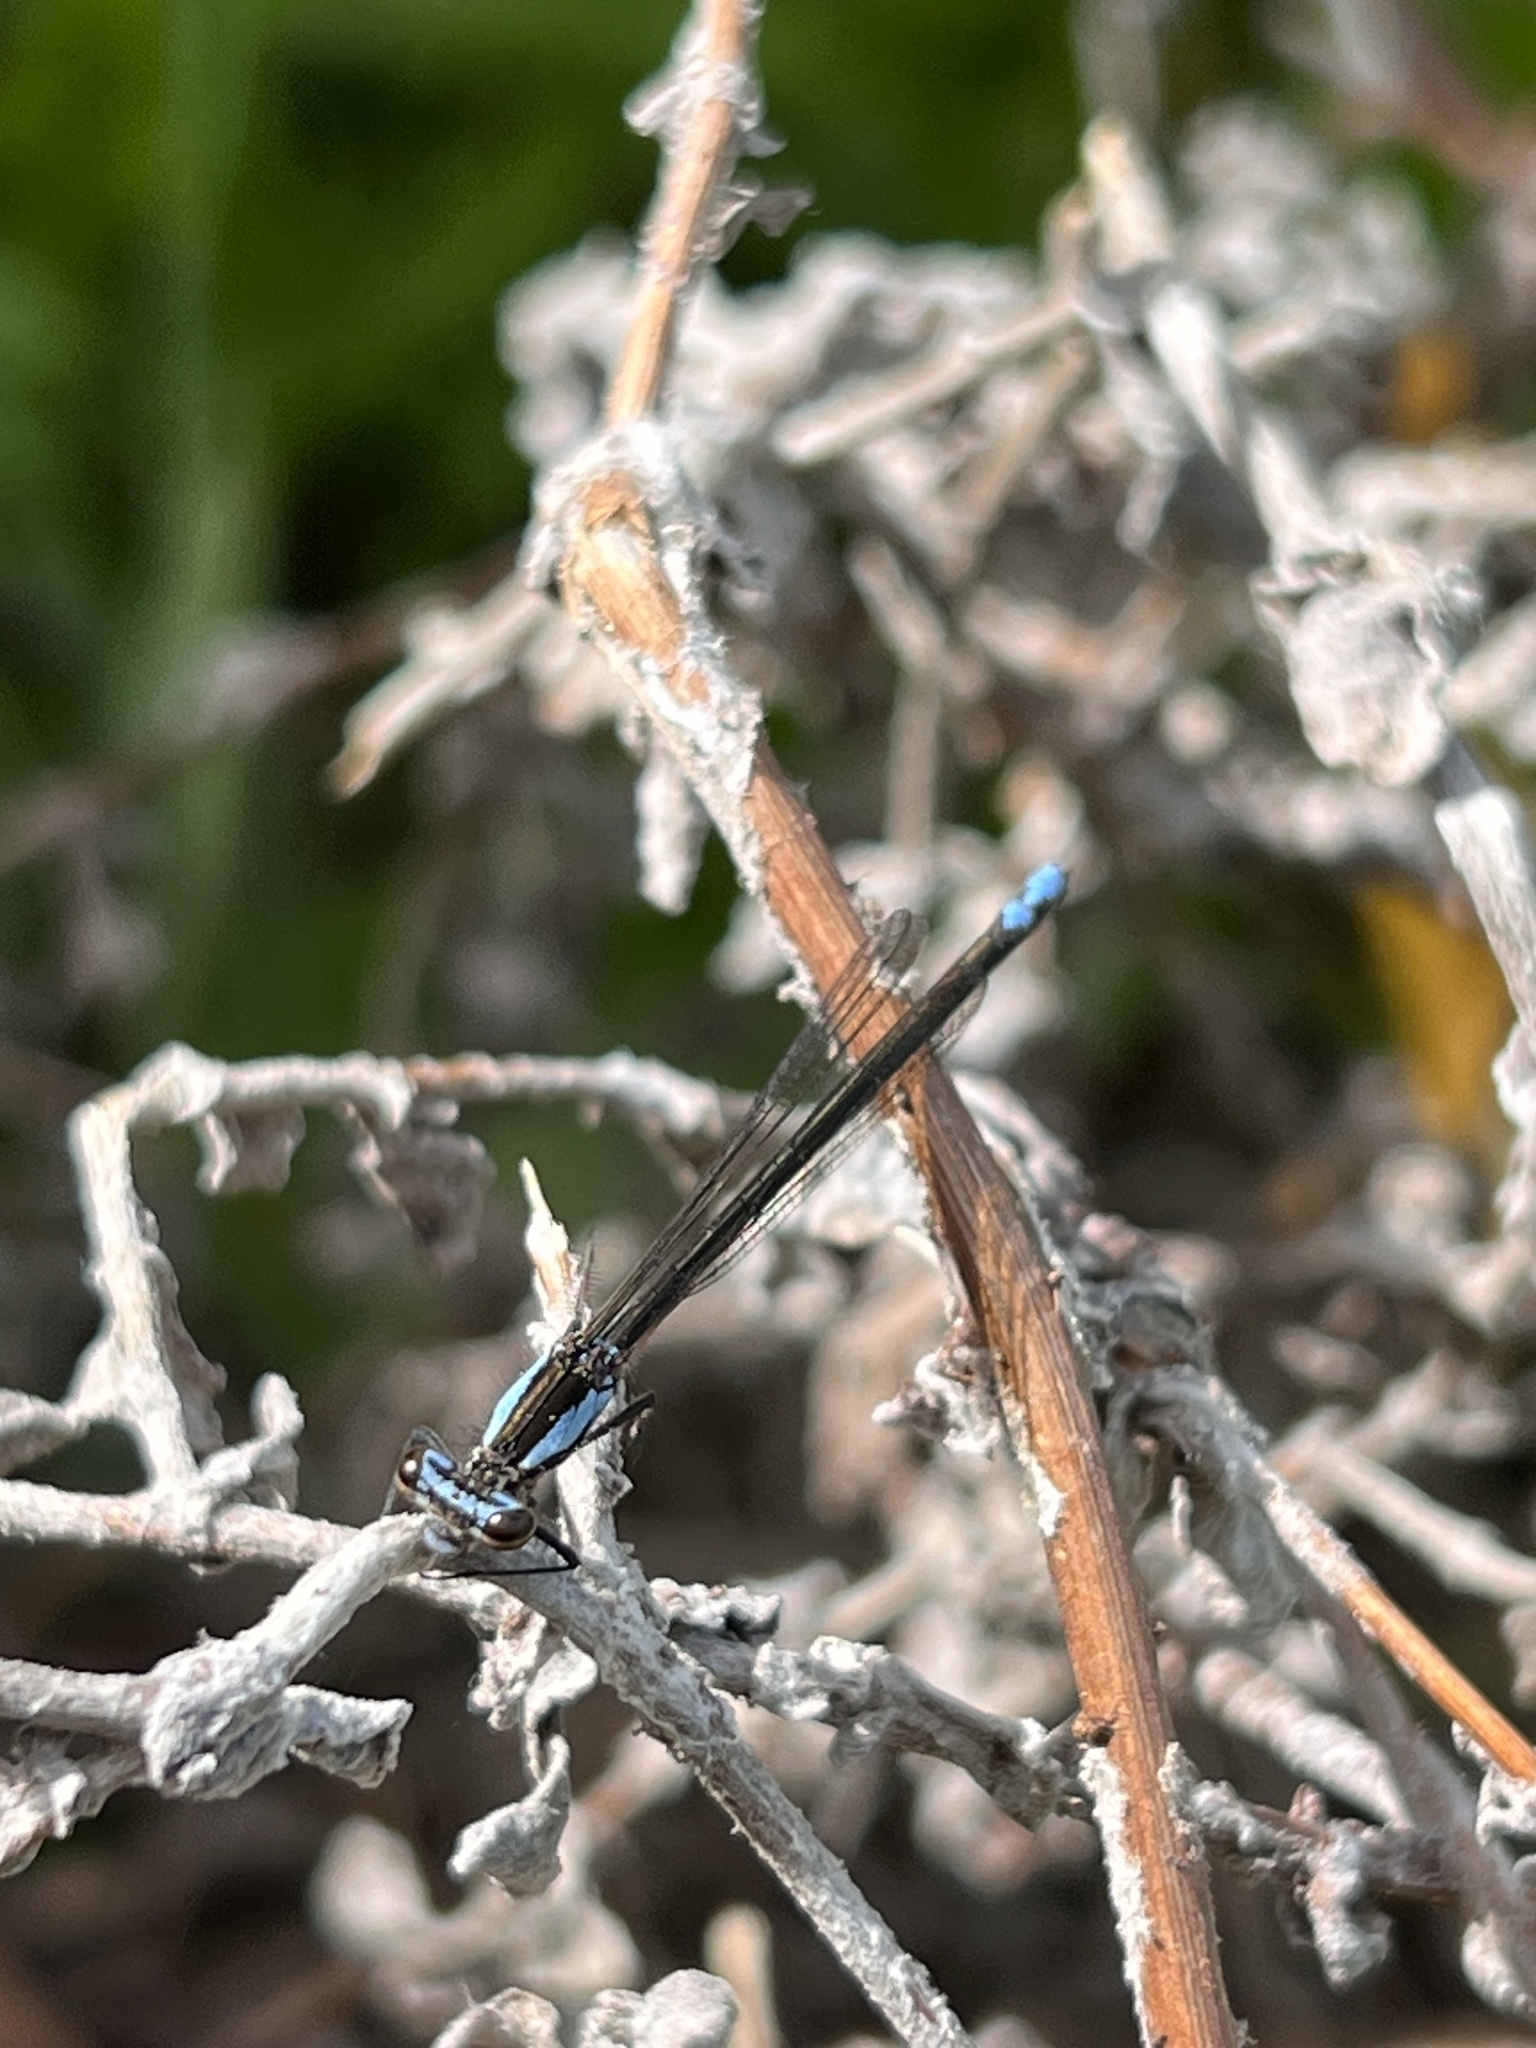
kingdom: Animalia
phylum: Arthropoda
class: Insecta
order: Odonata
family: Platycnemididae
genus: Spesbona
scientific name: Spesbona angusta
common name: Ceres featherlegs
